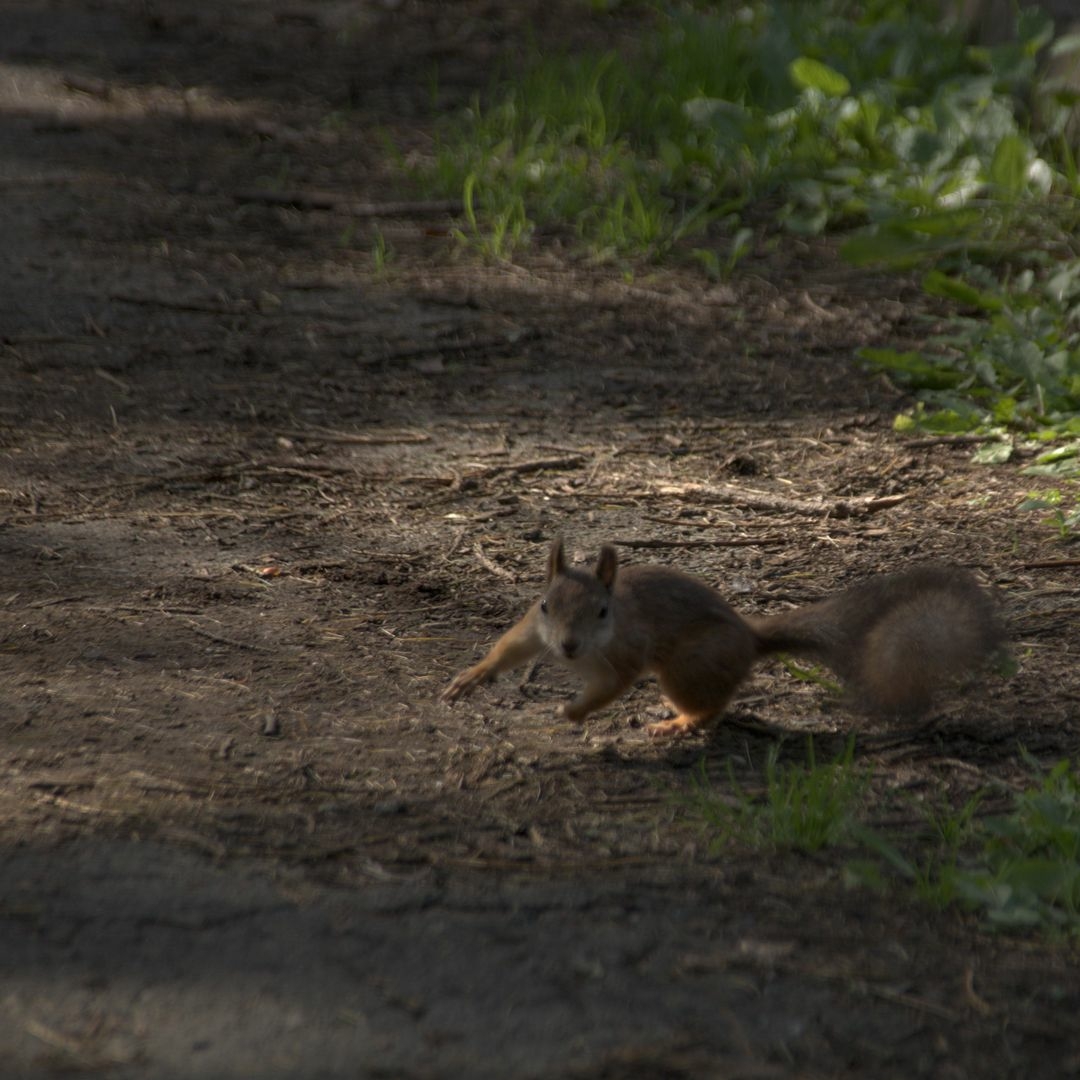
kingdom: Animalia
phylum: Chordata
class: Mammalia
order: Rodentia
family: Sciuridae
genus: Sciurus
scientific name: Sciurus vulgaris
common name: Eurasian red squirrel
